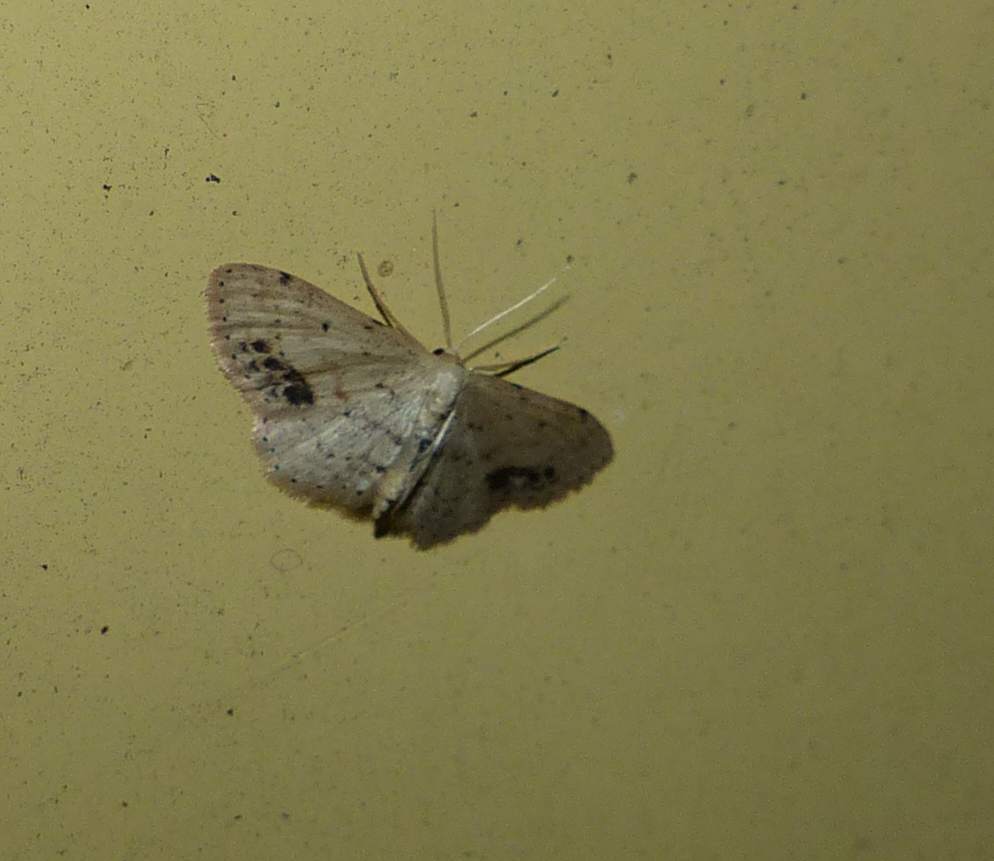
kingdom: Animalia
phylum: Arthropoda
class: Insecta
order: Lepidoptera
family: Geometridae
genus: Idaea
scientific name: Idaea dimidiata
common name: Single-dotted wave
